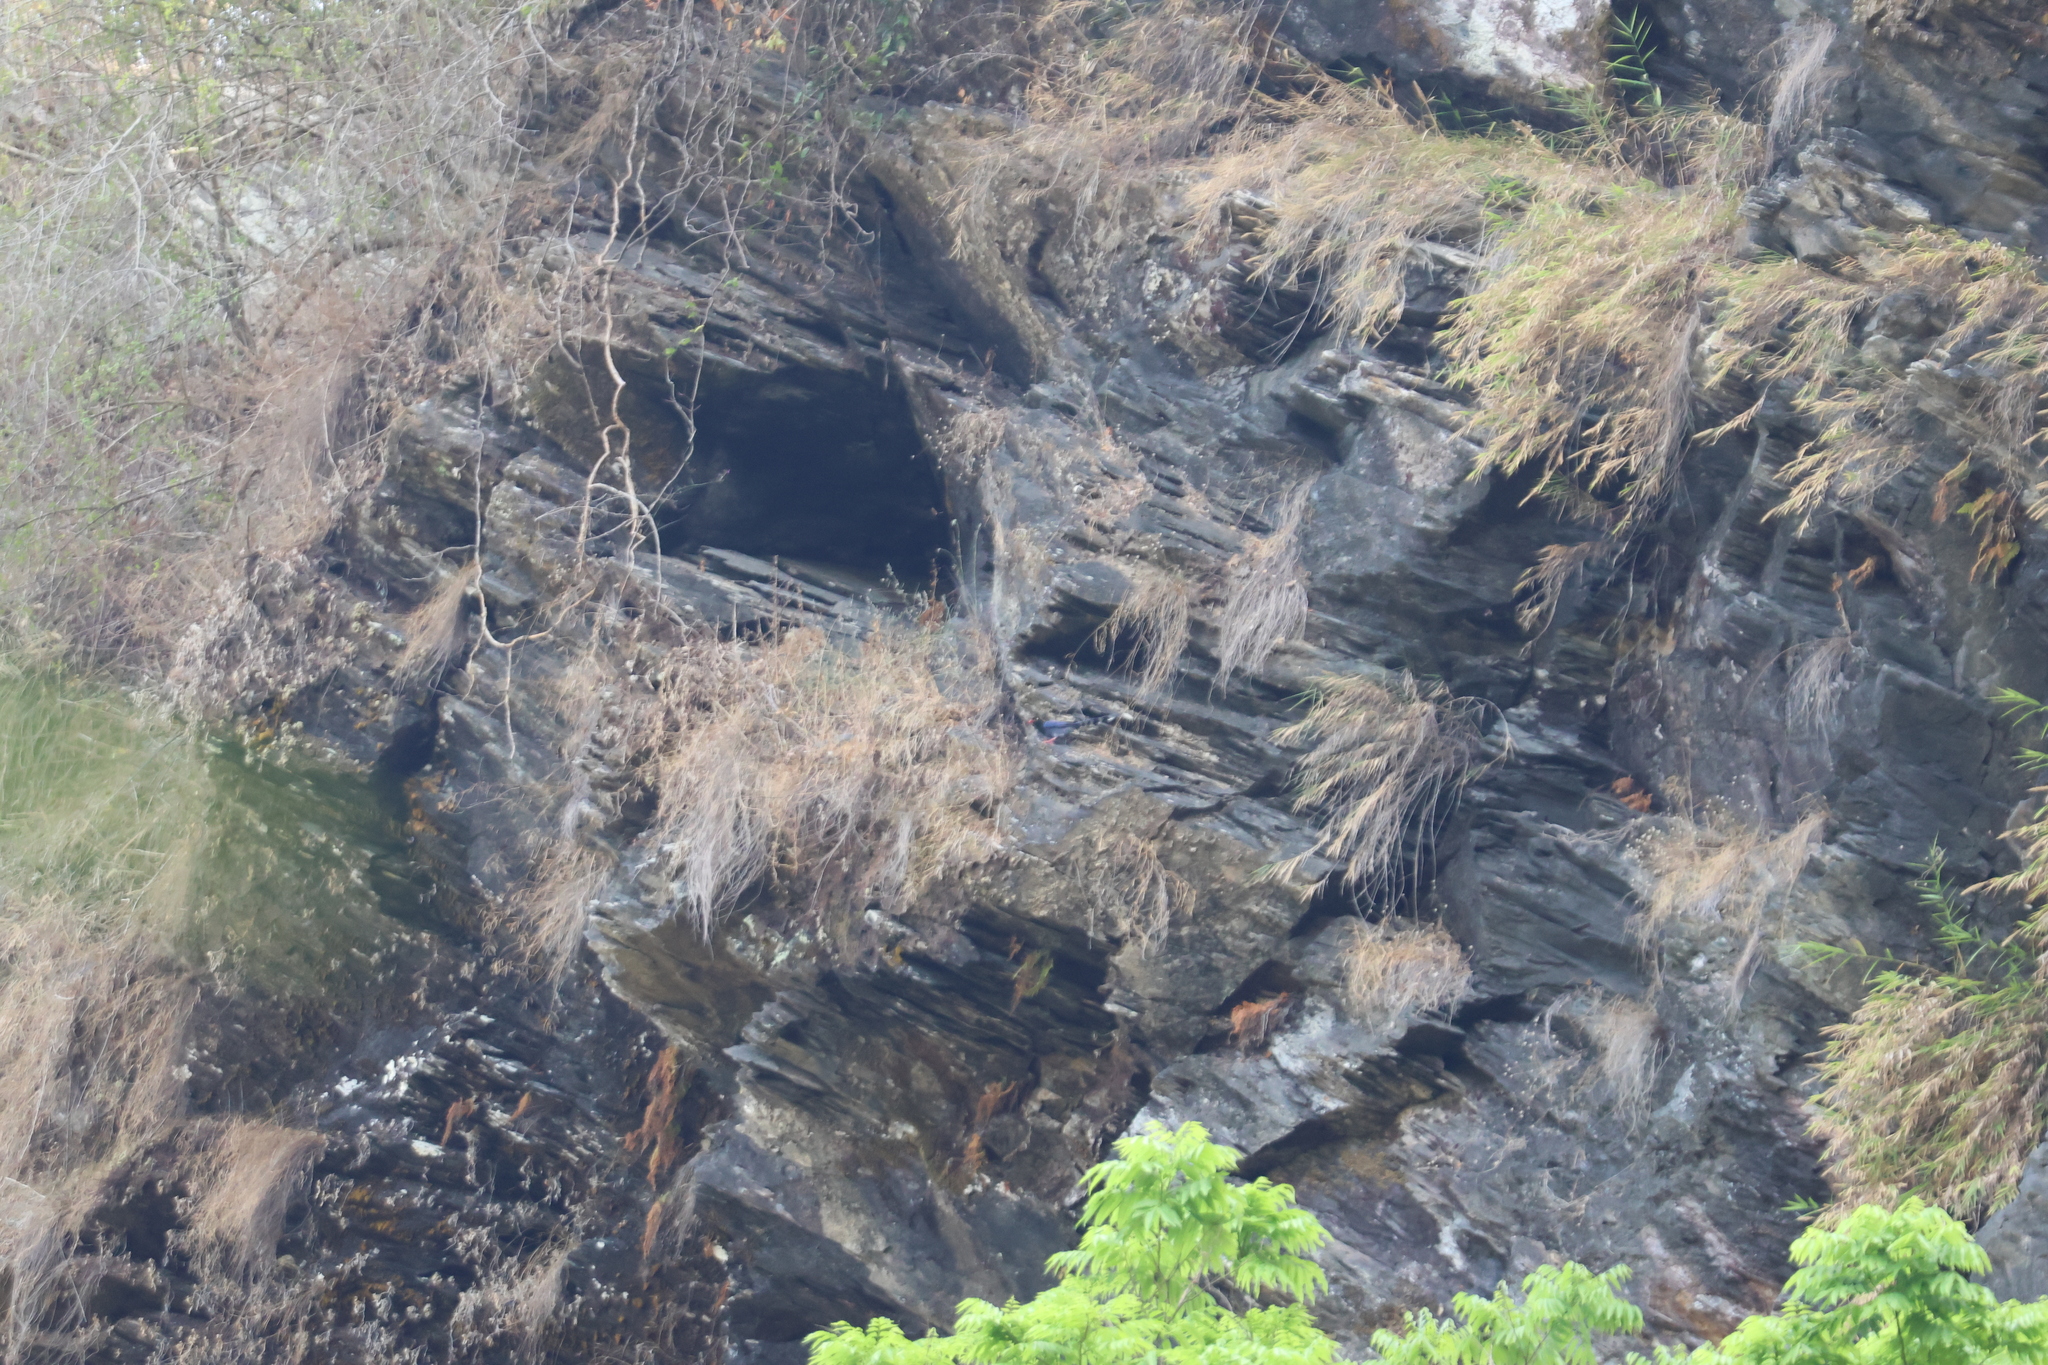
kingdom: Animalia
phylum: Chordata
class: Aves
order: Passeriformes
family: Corvidae
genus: Urocissa
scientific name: Urocissa caerulea
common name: Taiwan blue magpie
